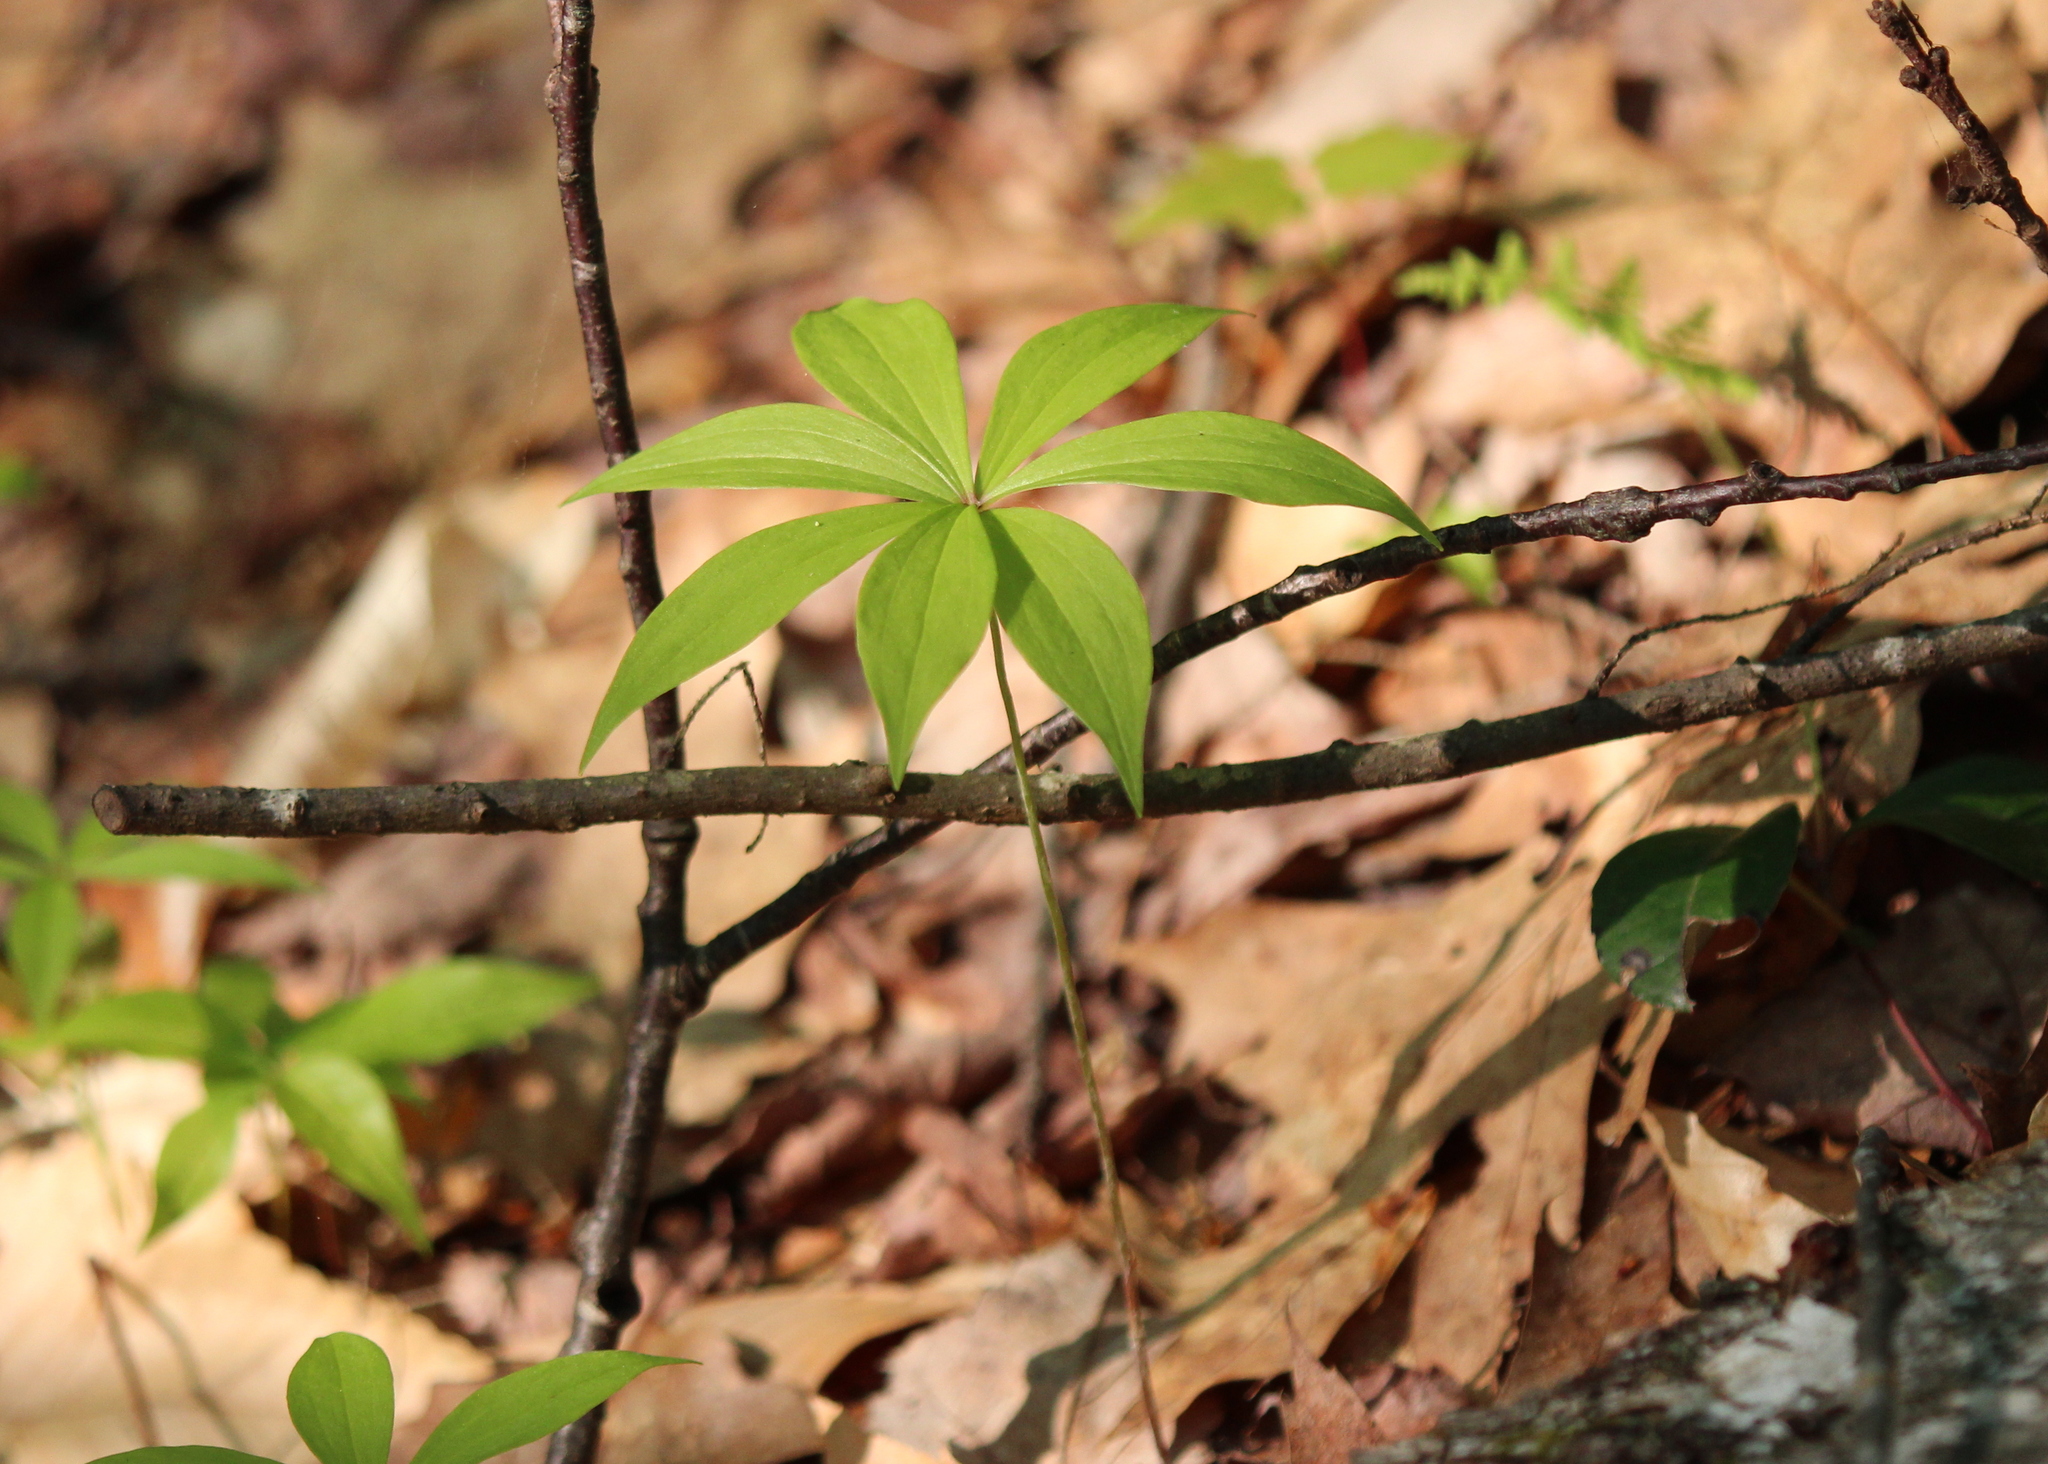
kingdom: Plantae
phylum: Tracheophyta
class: Liliopsida
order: Liliales
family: Liliaceae
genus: Medeola
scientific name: Medeola virginiana
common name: Indian cucumber-root
